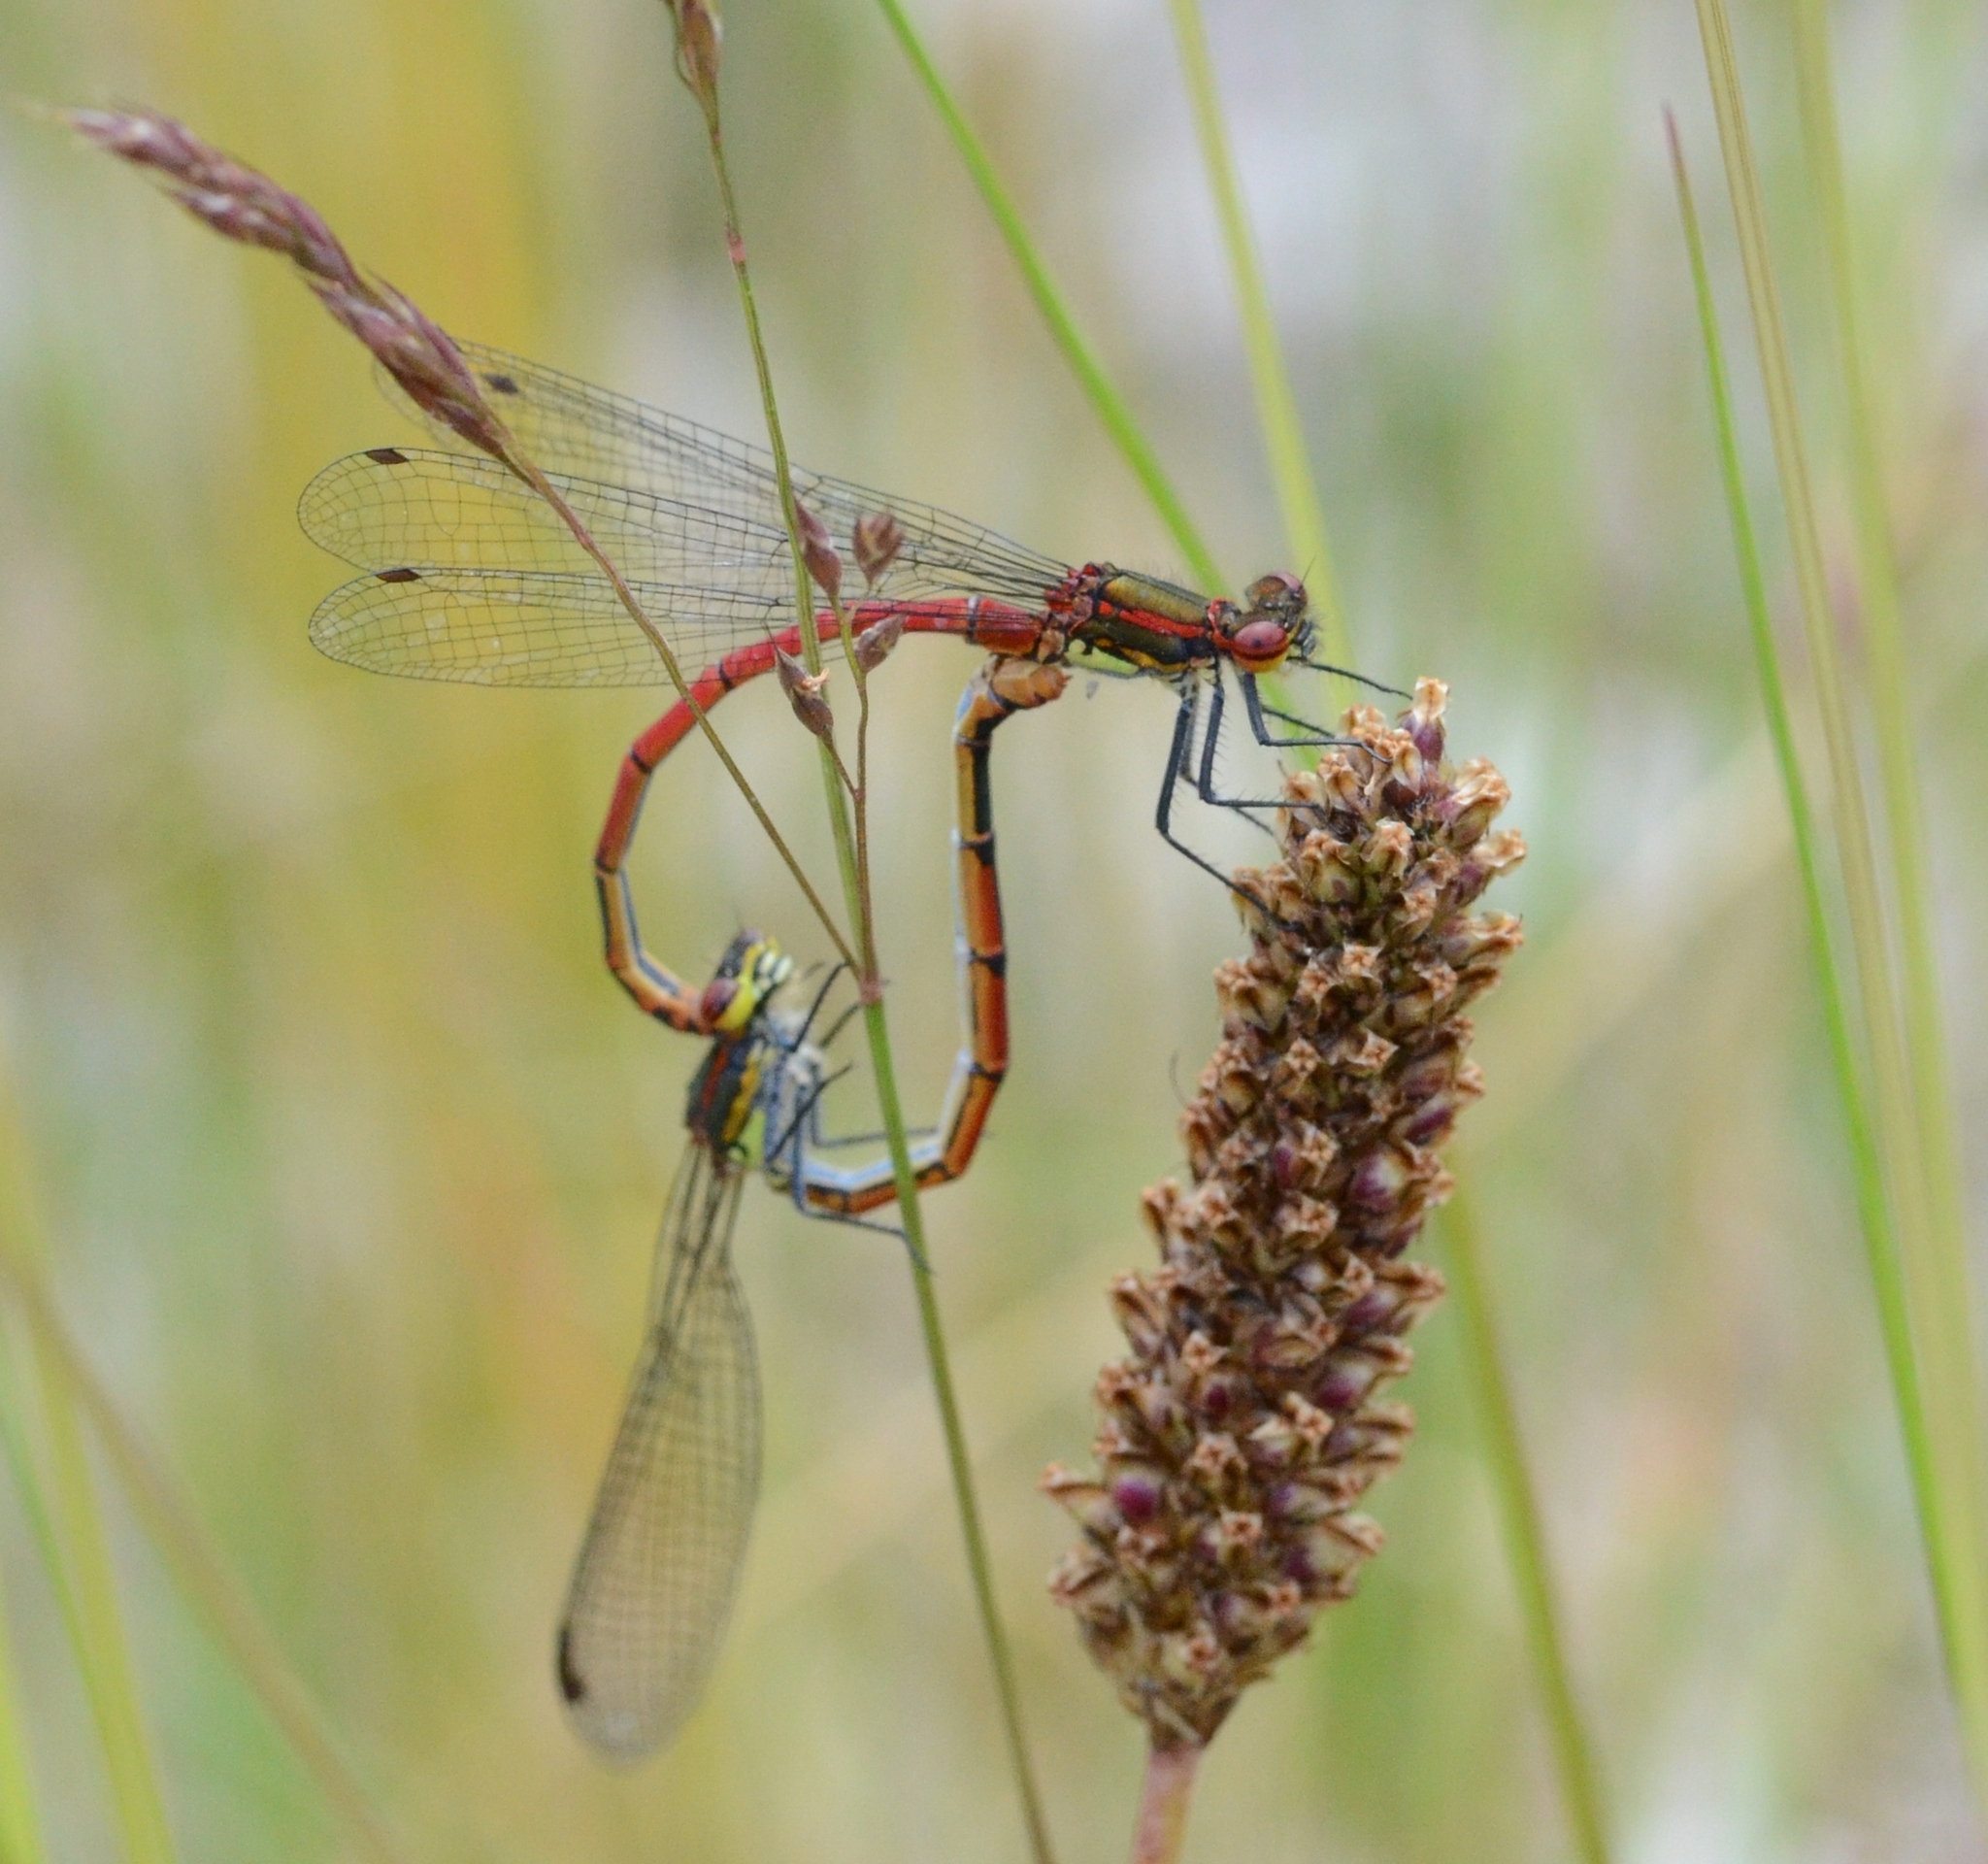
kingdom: Animalia
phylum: Arthropoda
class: Insecta
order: Odonata
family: Coenagrionidae
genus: Pyrrhosoma
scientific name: Pyrrhosoma nymphula
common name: Large red damsel
